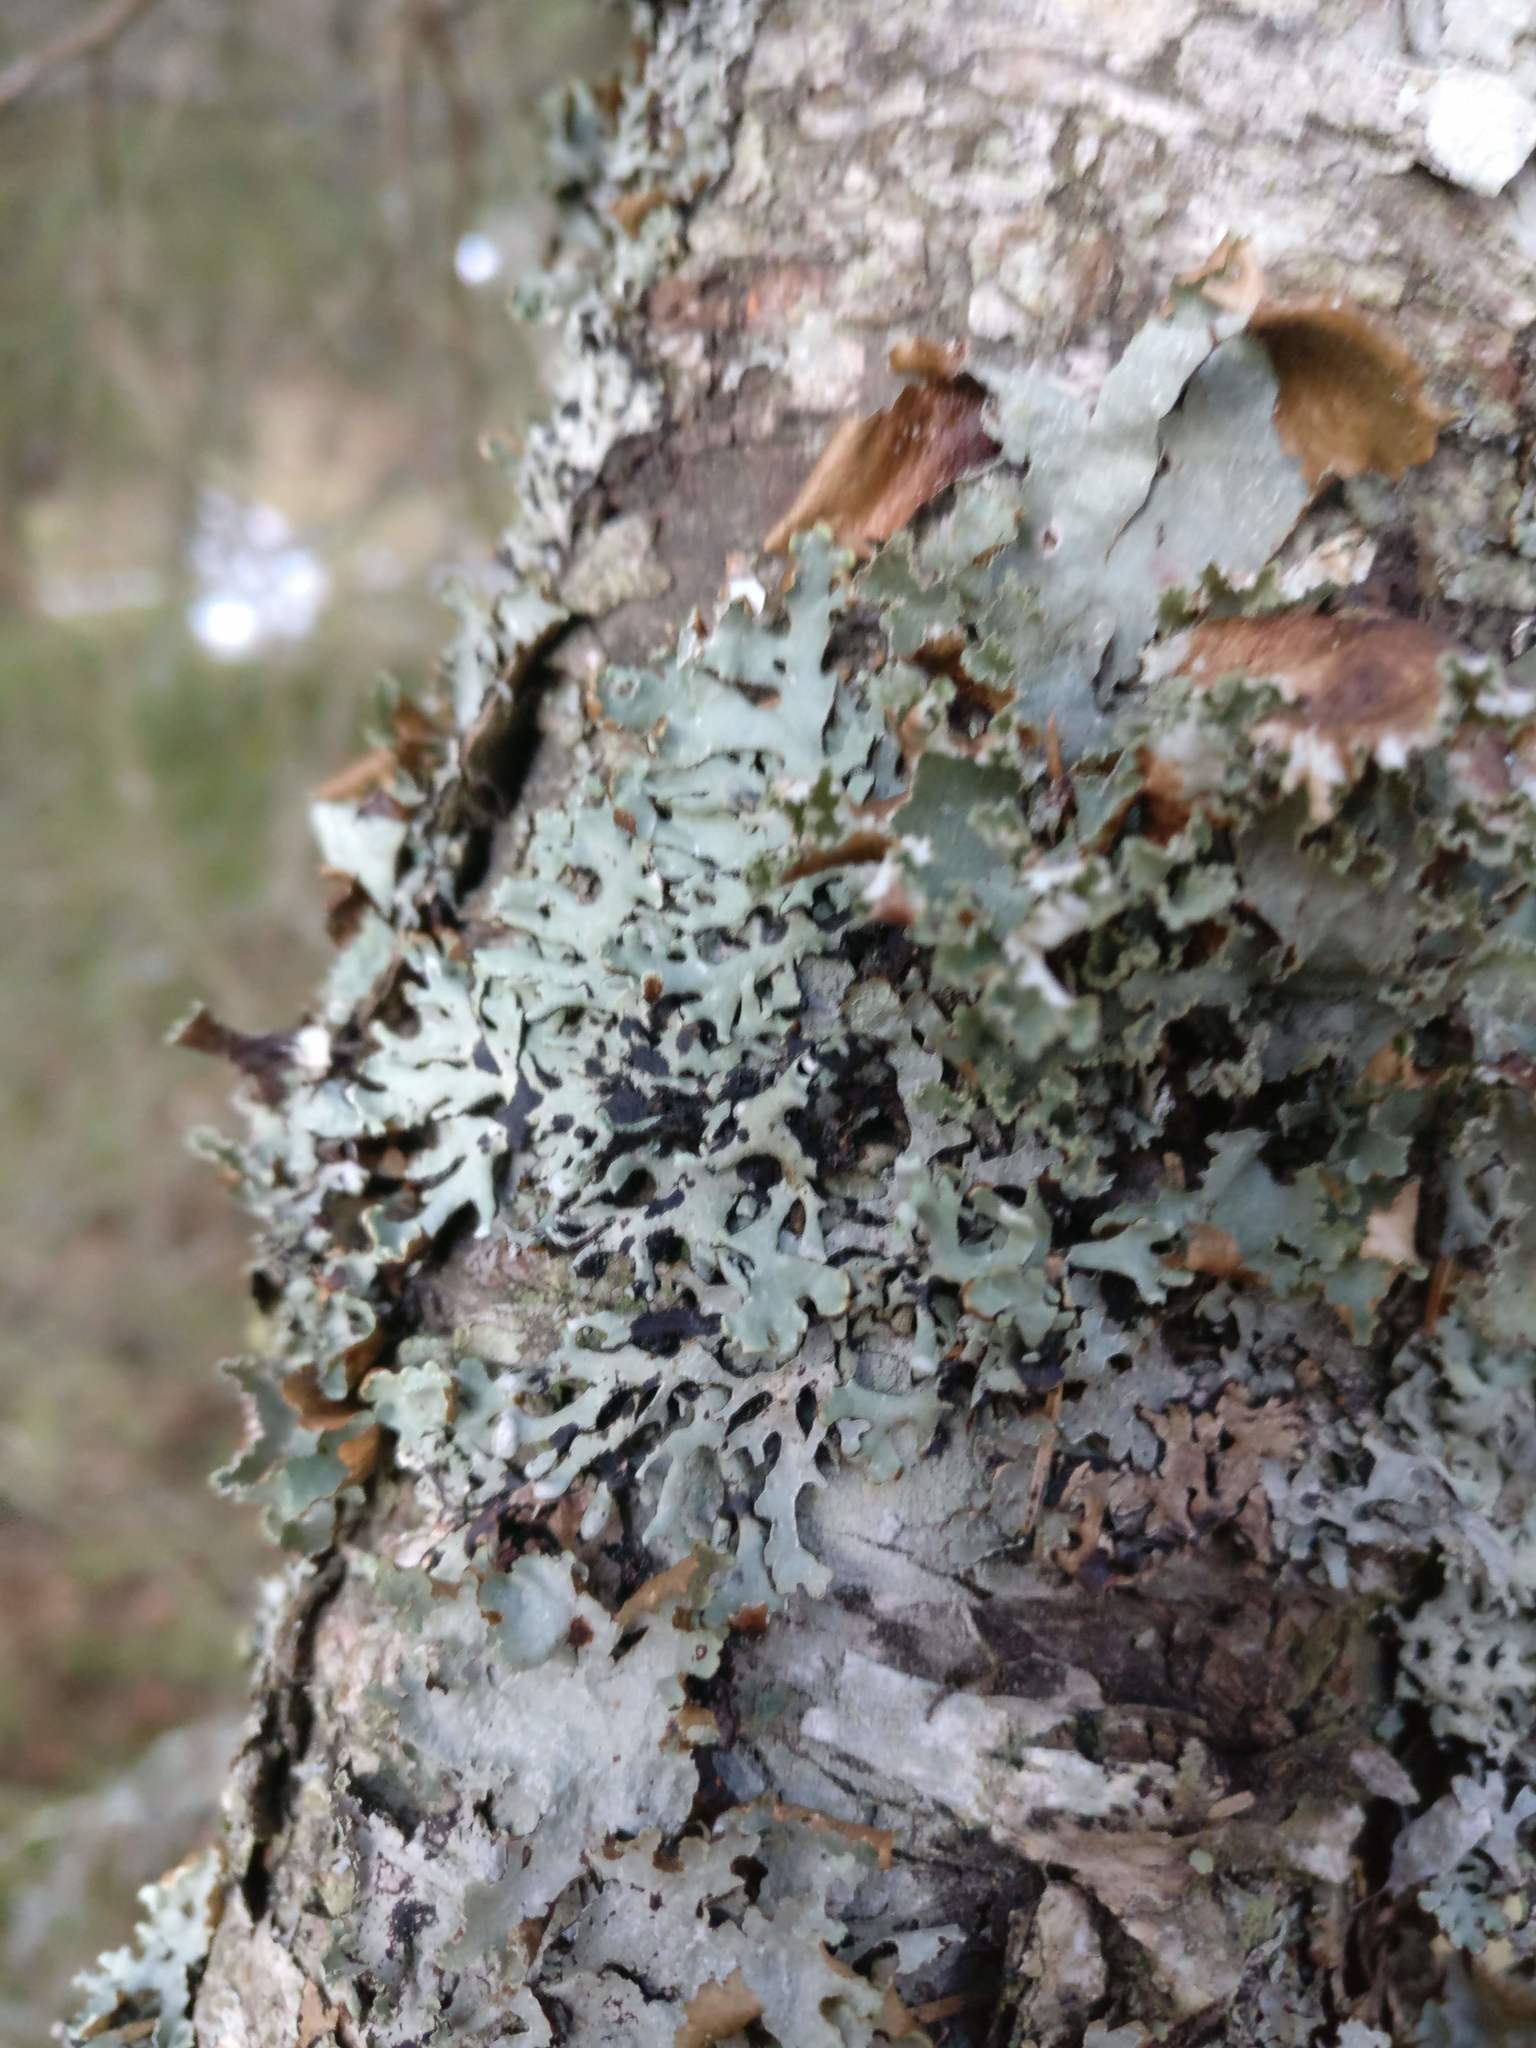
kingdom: Fungi
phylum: Ascomycota
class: Lecanoromycetes
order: Lecanorales
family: Parmeliaceae
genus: Platismatia
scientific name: Platismatia glauca
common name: Varied rag lichen
